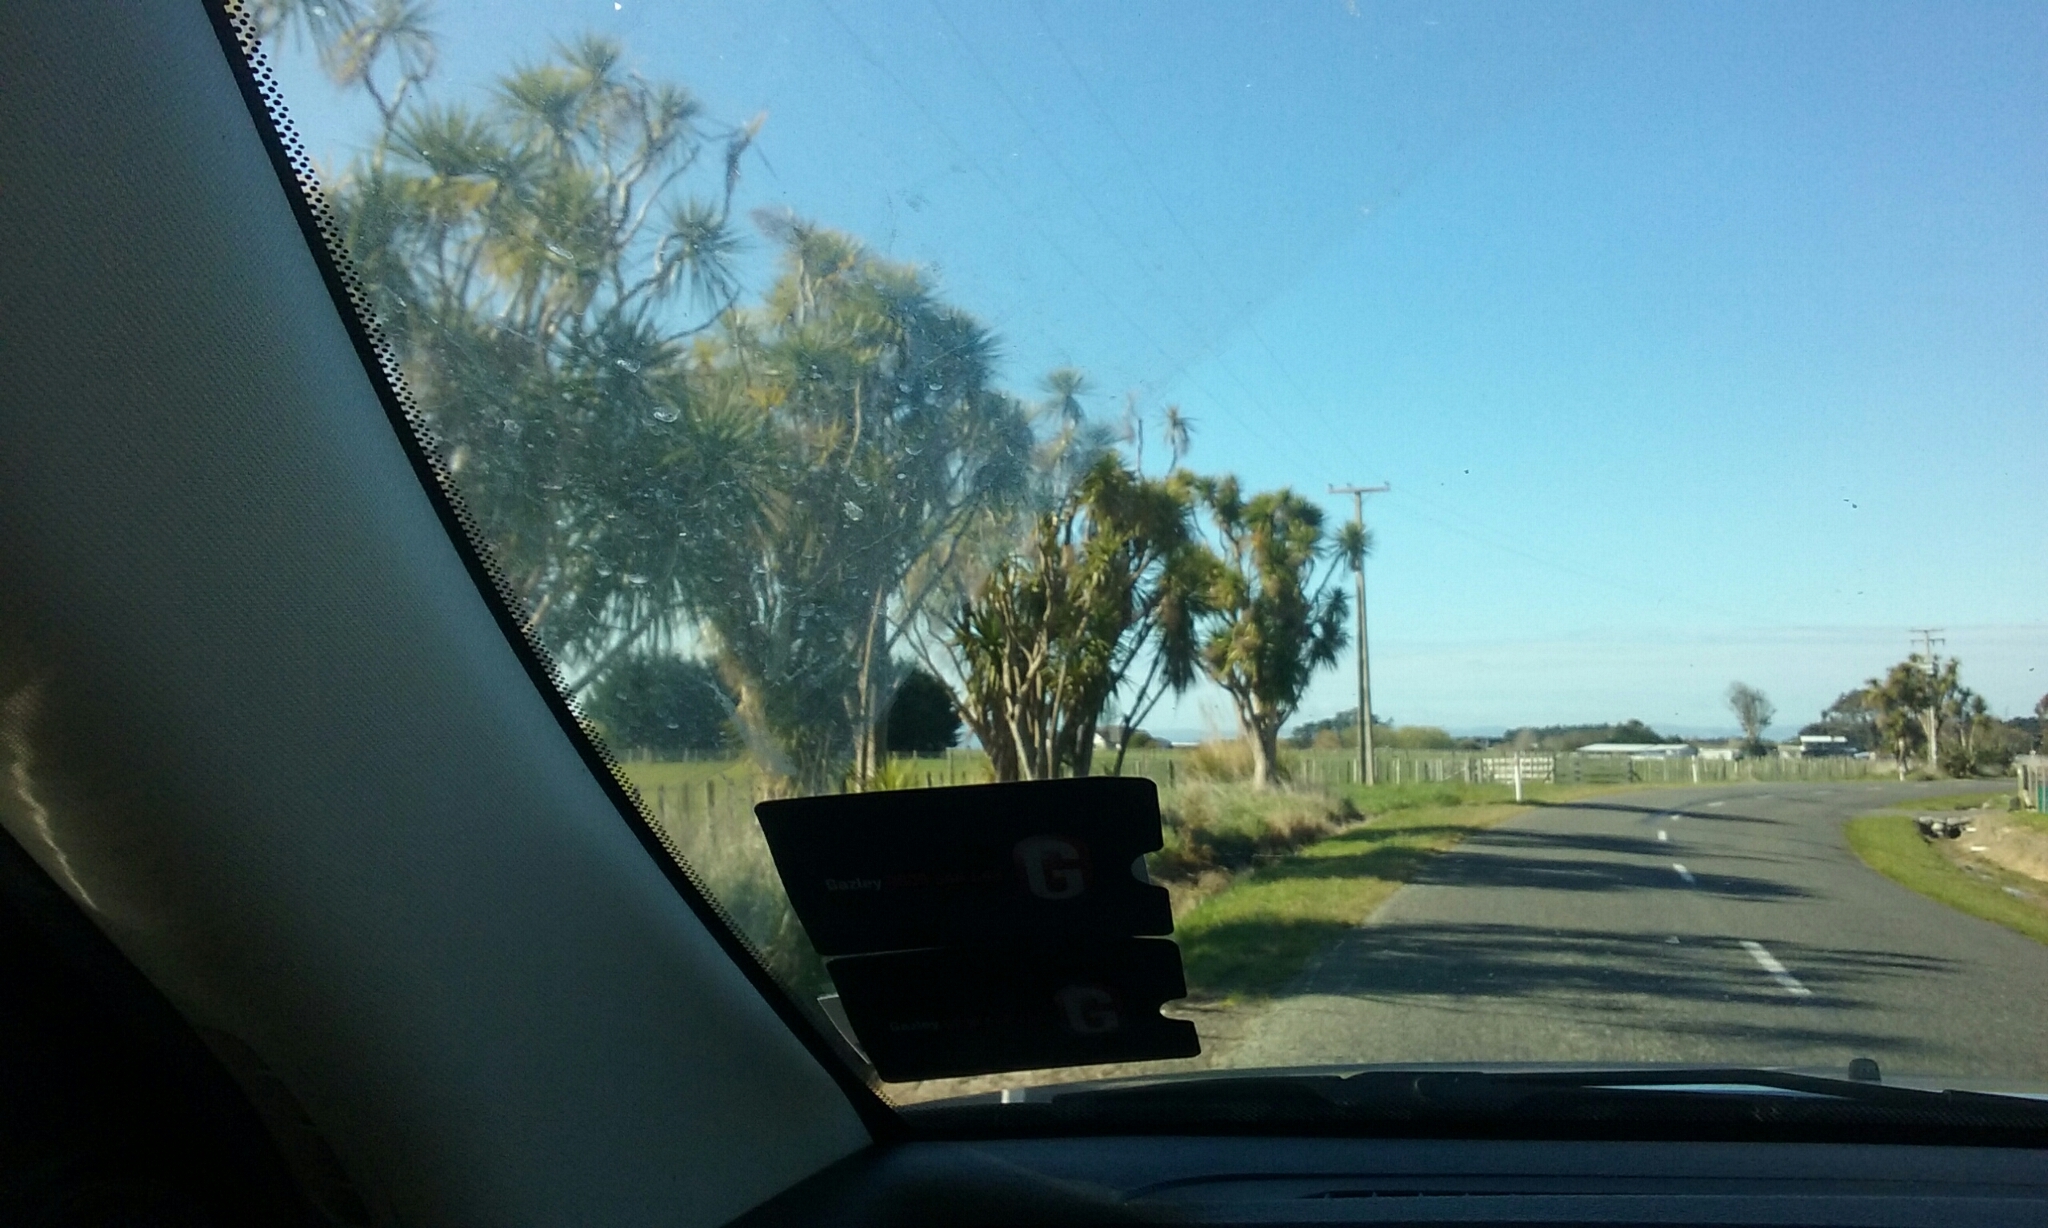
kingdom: Plantae
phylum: Tracheophyta
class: Liliopsida
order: Asparagales
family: Asparagaceae
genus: Cordyline
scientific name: Cordyline australis
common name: Cabbage-palm
